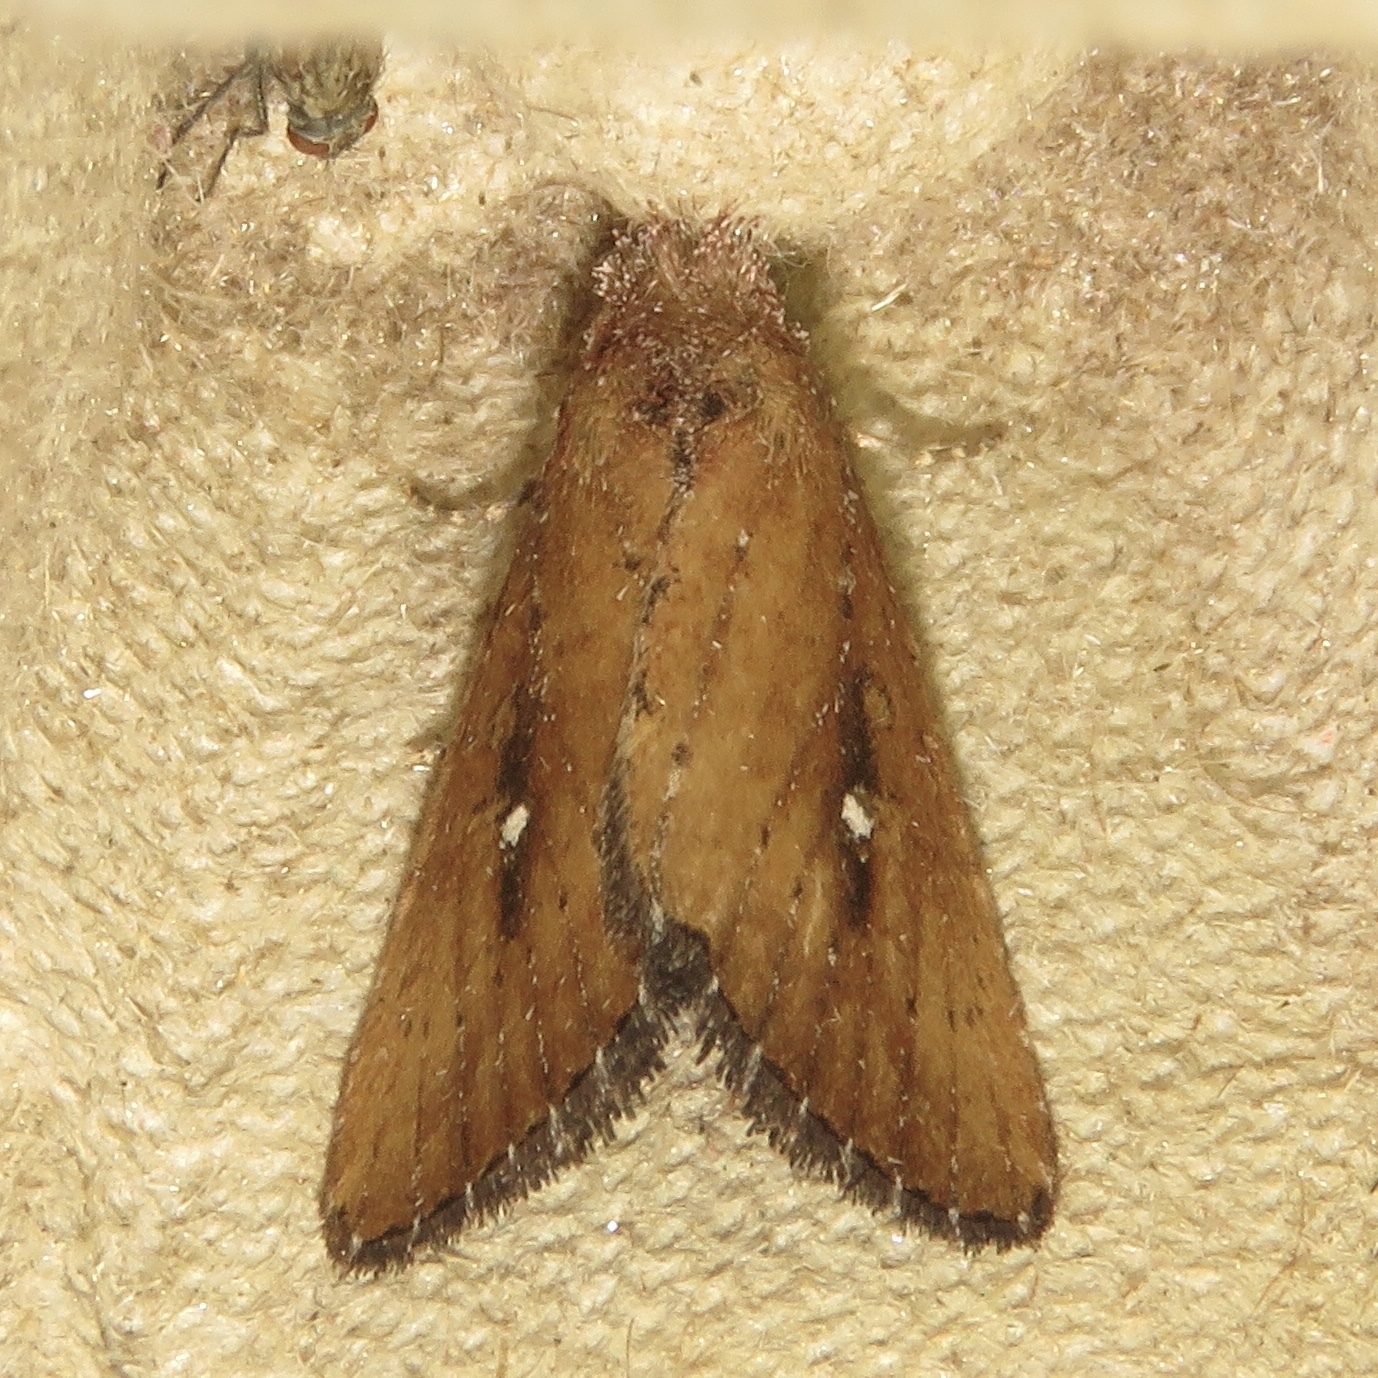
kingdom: Animalia
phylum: Arthropoda
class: Insecta
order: Lepidoptera
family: Noctuidae
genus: Condica
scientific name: Condica videns
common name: White-dotted groundling
